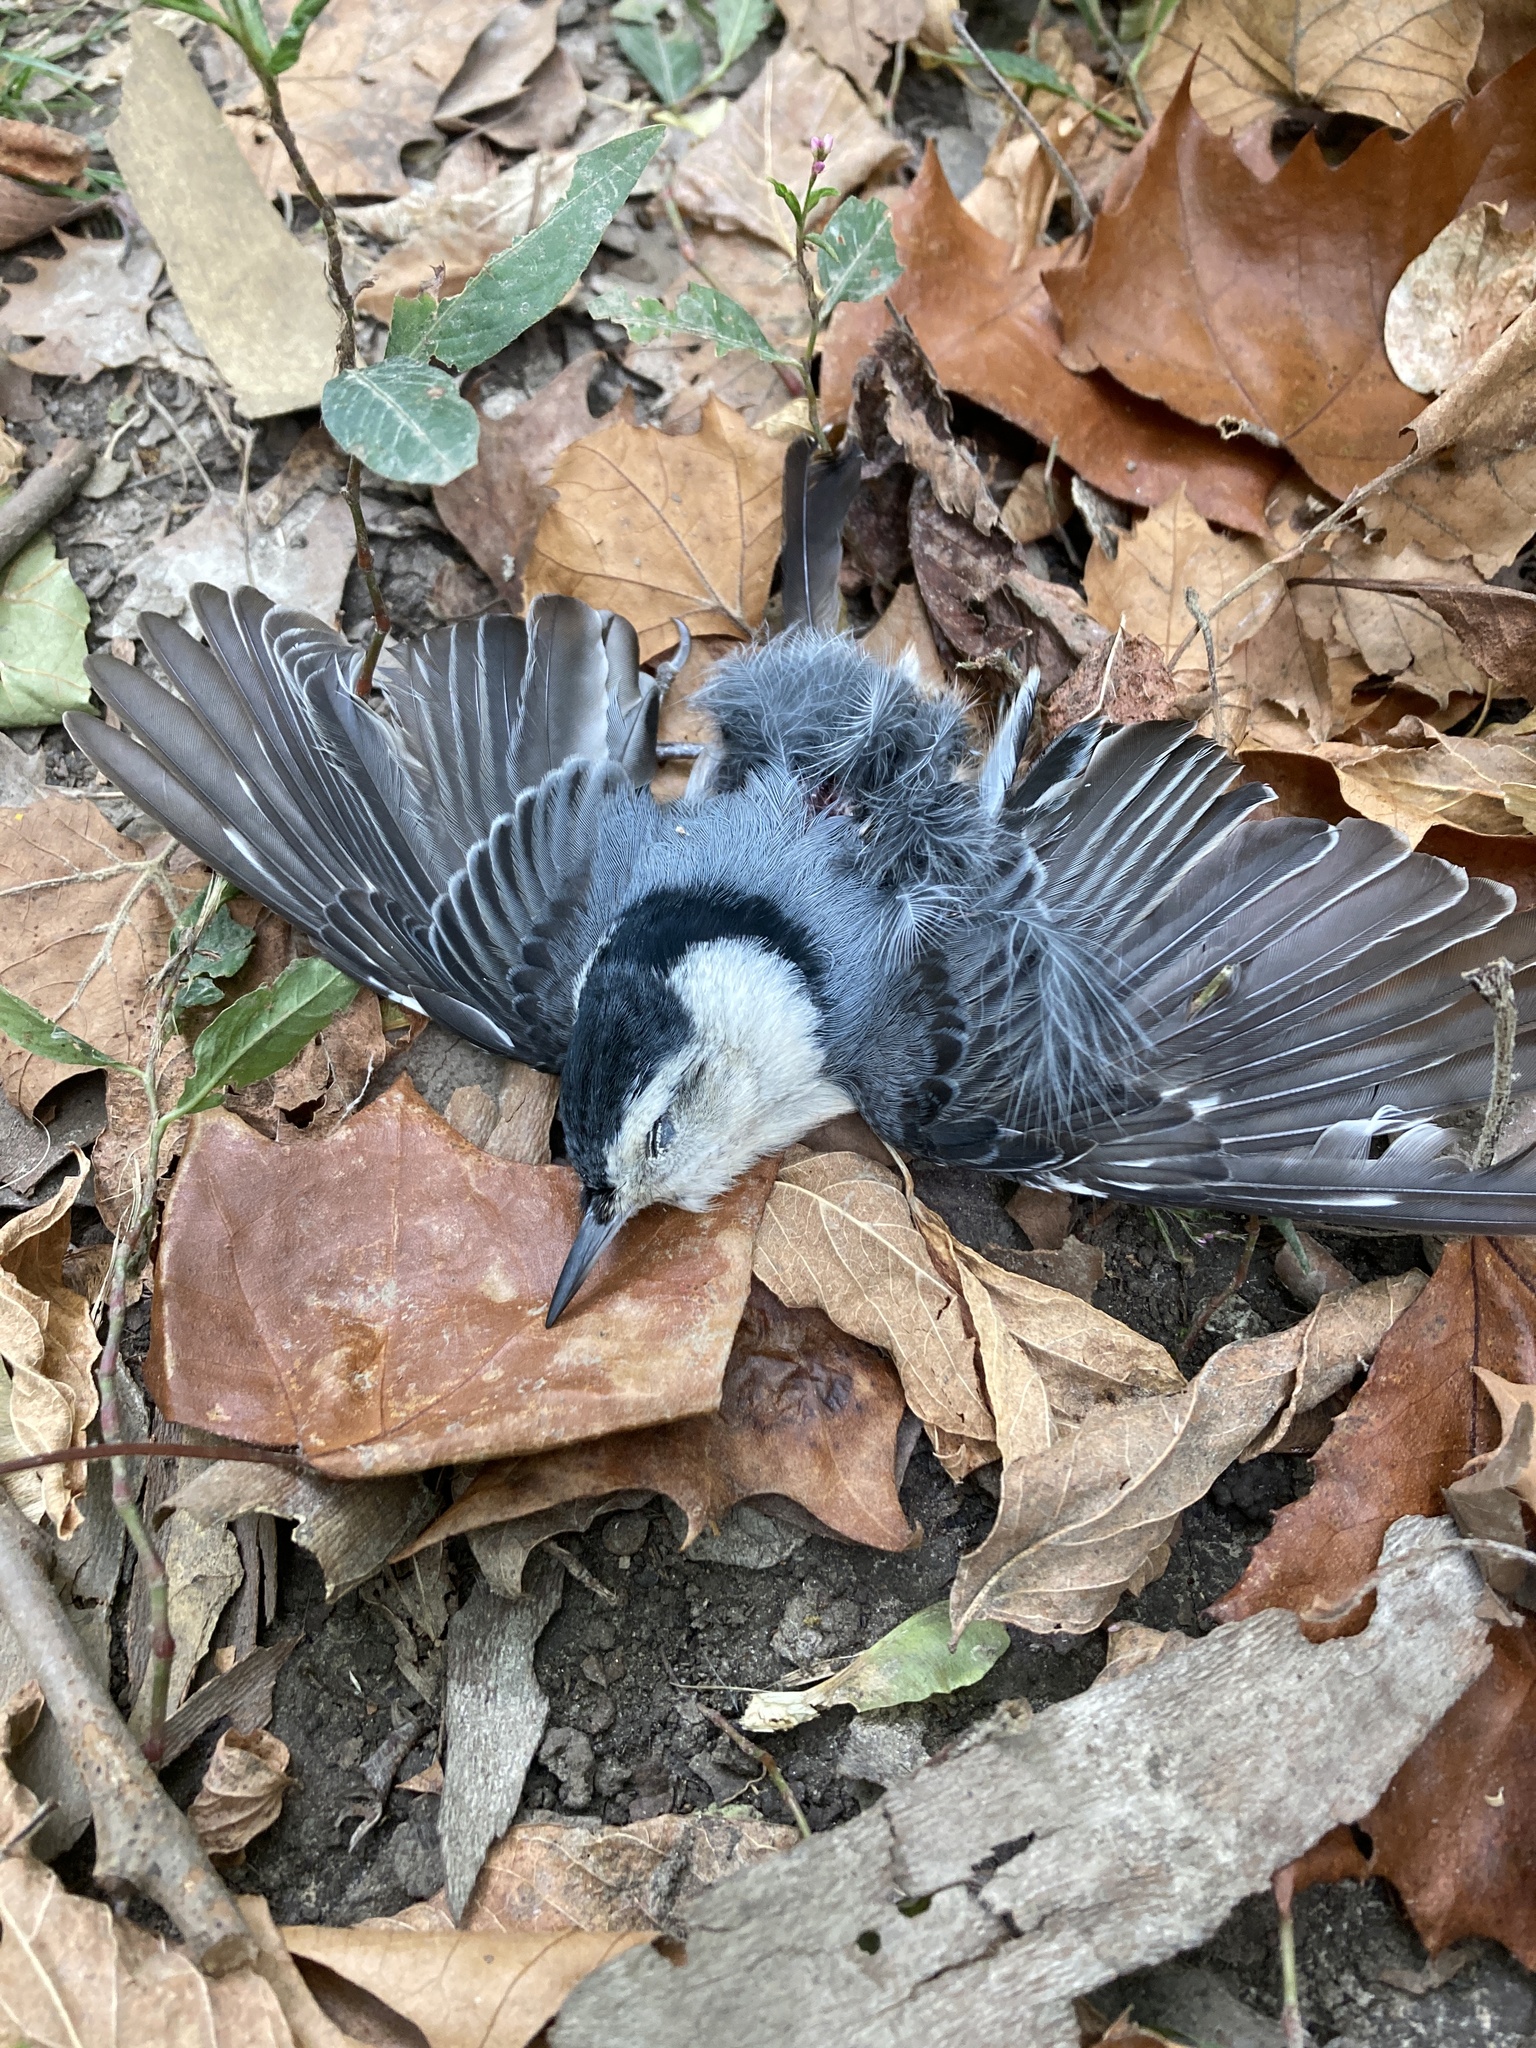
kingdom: Animalia
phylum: Chordata
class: Aves
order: Passeriformes
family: Sittidae
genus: Sitta
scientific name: Sitta carolinensis
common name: White-breasted nuthatch
